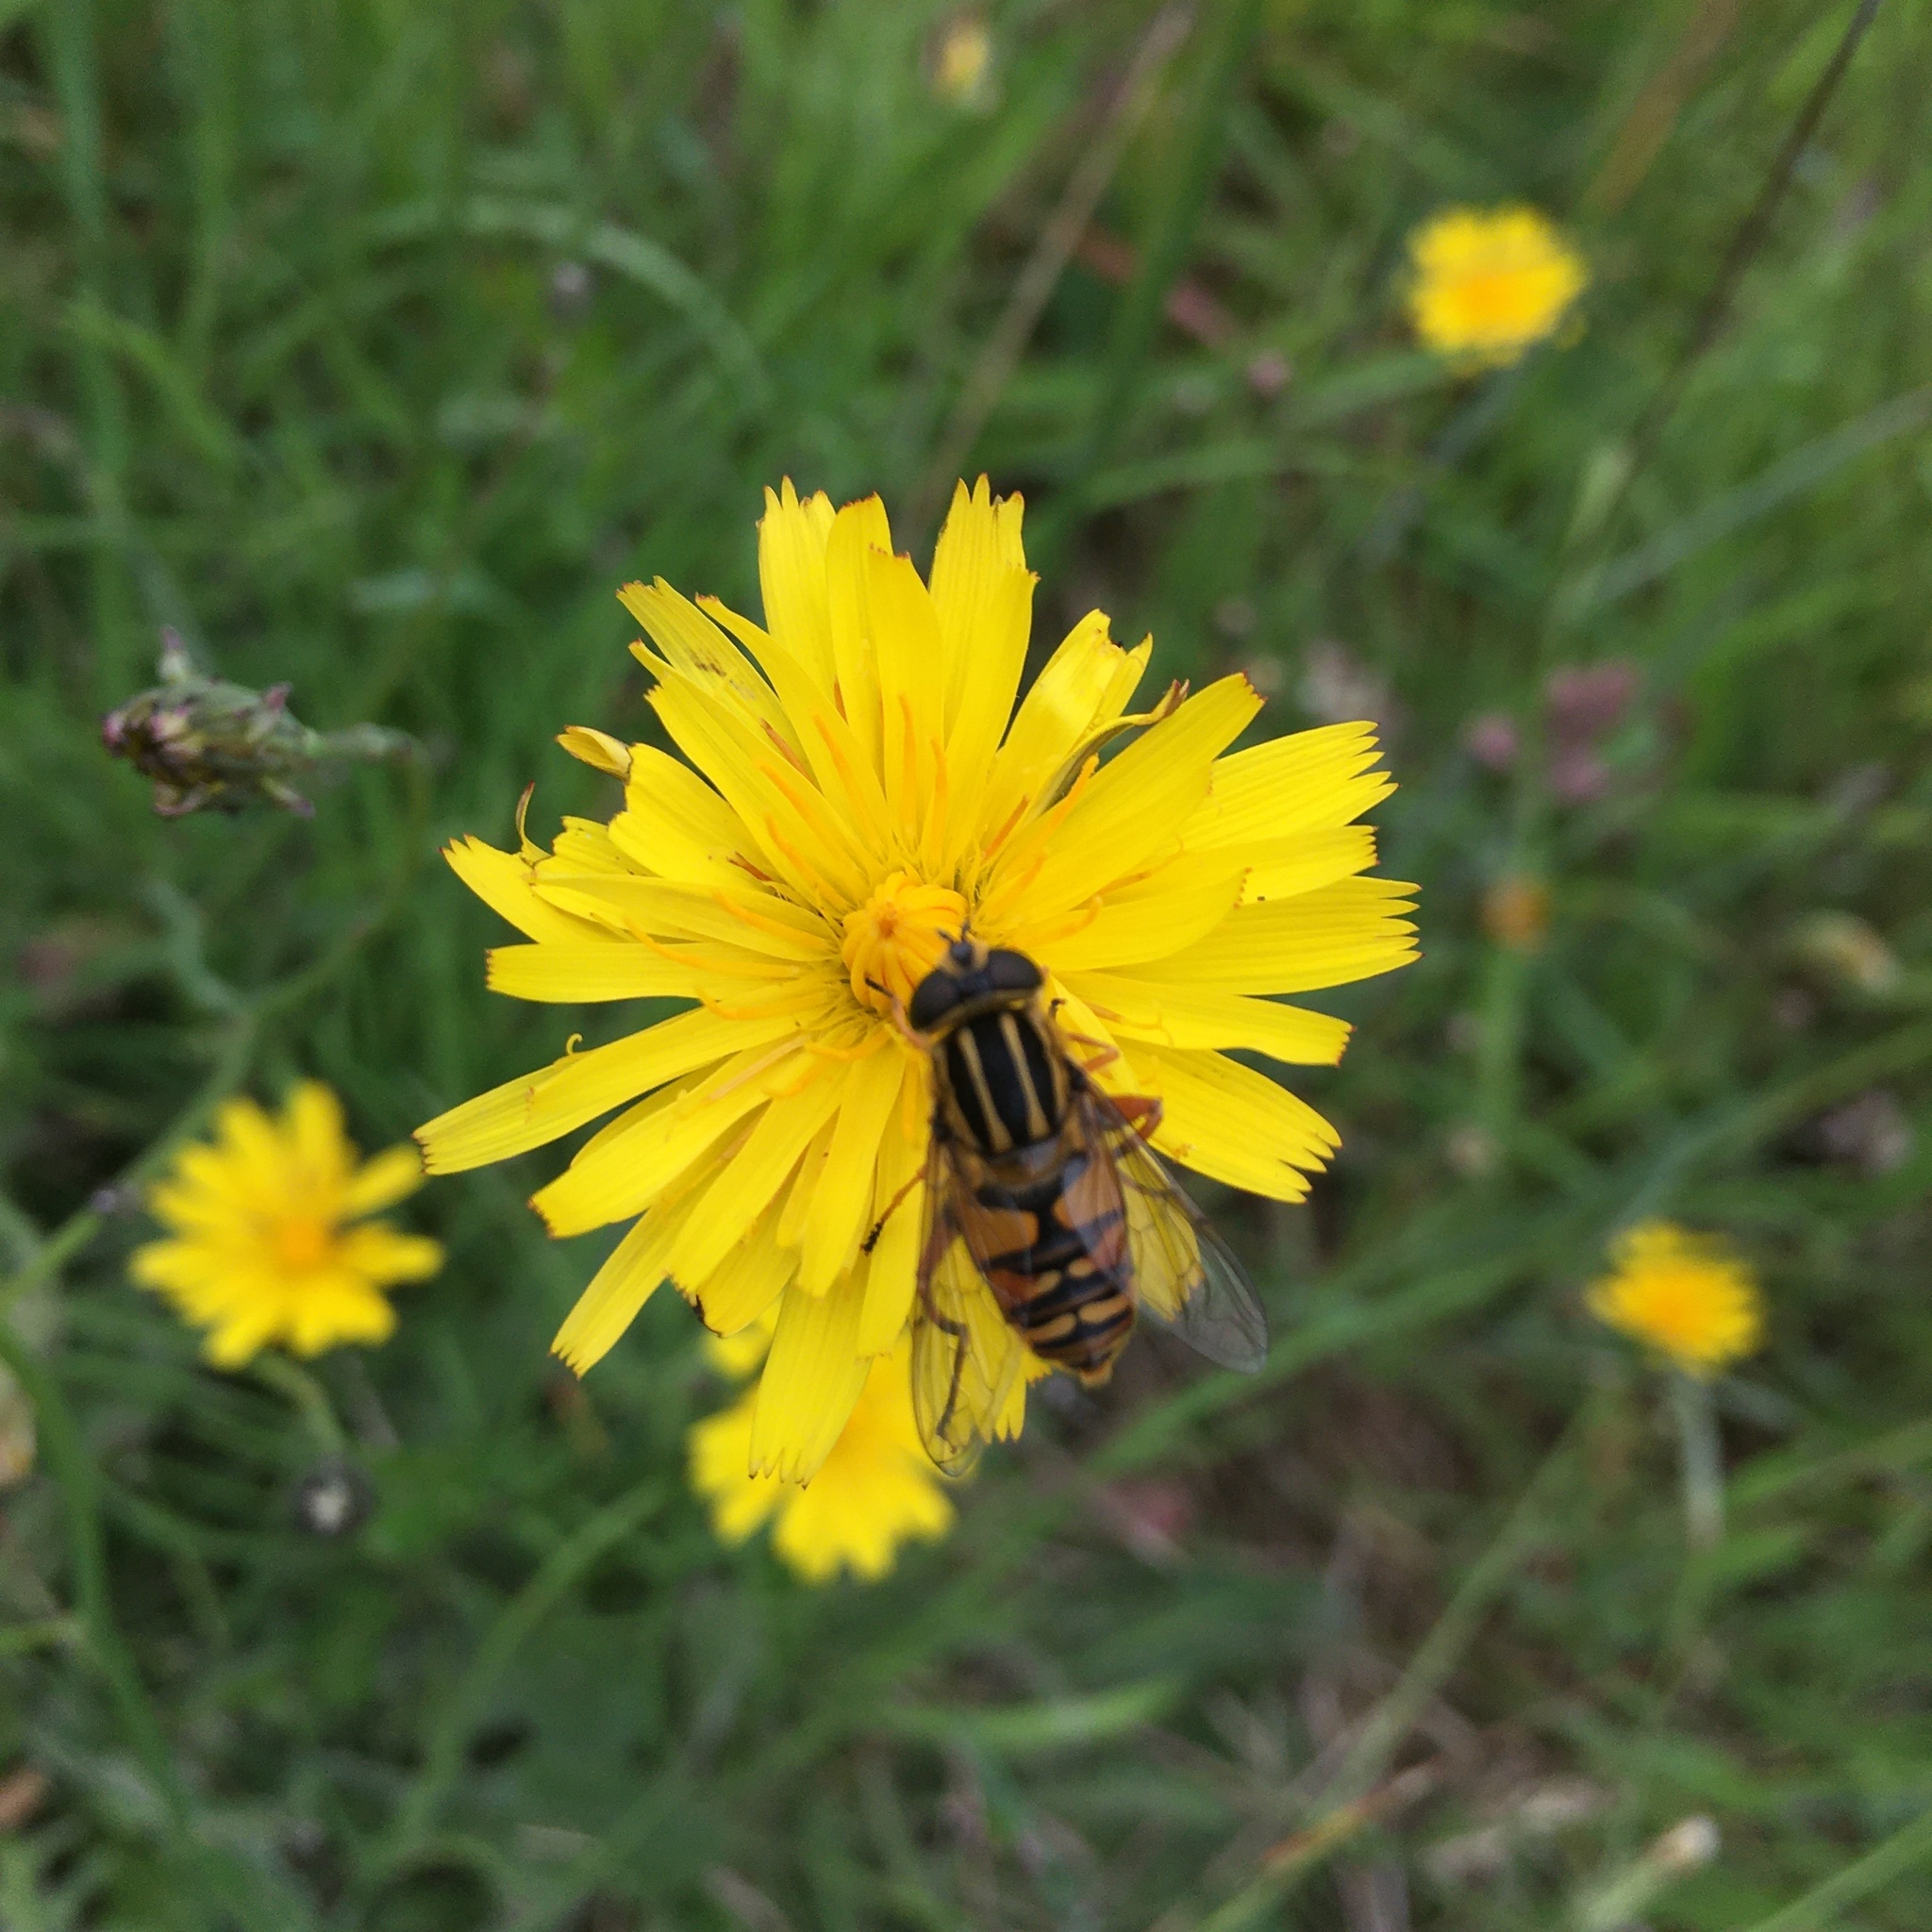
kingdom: Animalia
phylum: Arthropoda
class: Insecta
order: Diptera
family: Syrphidae
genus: Helophilus
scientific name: Helophilus pendulus
